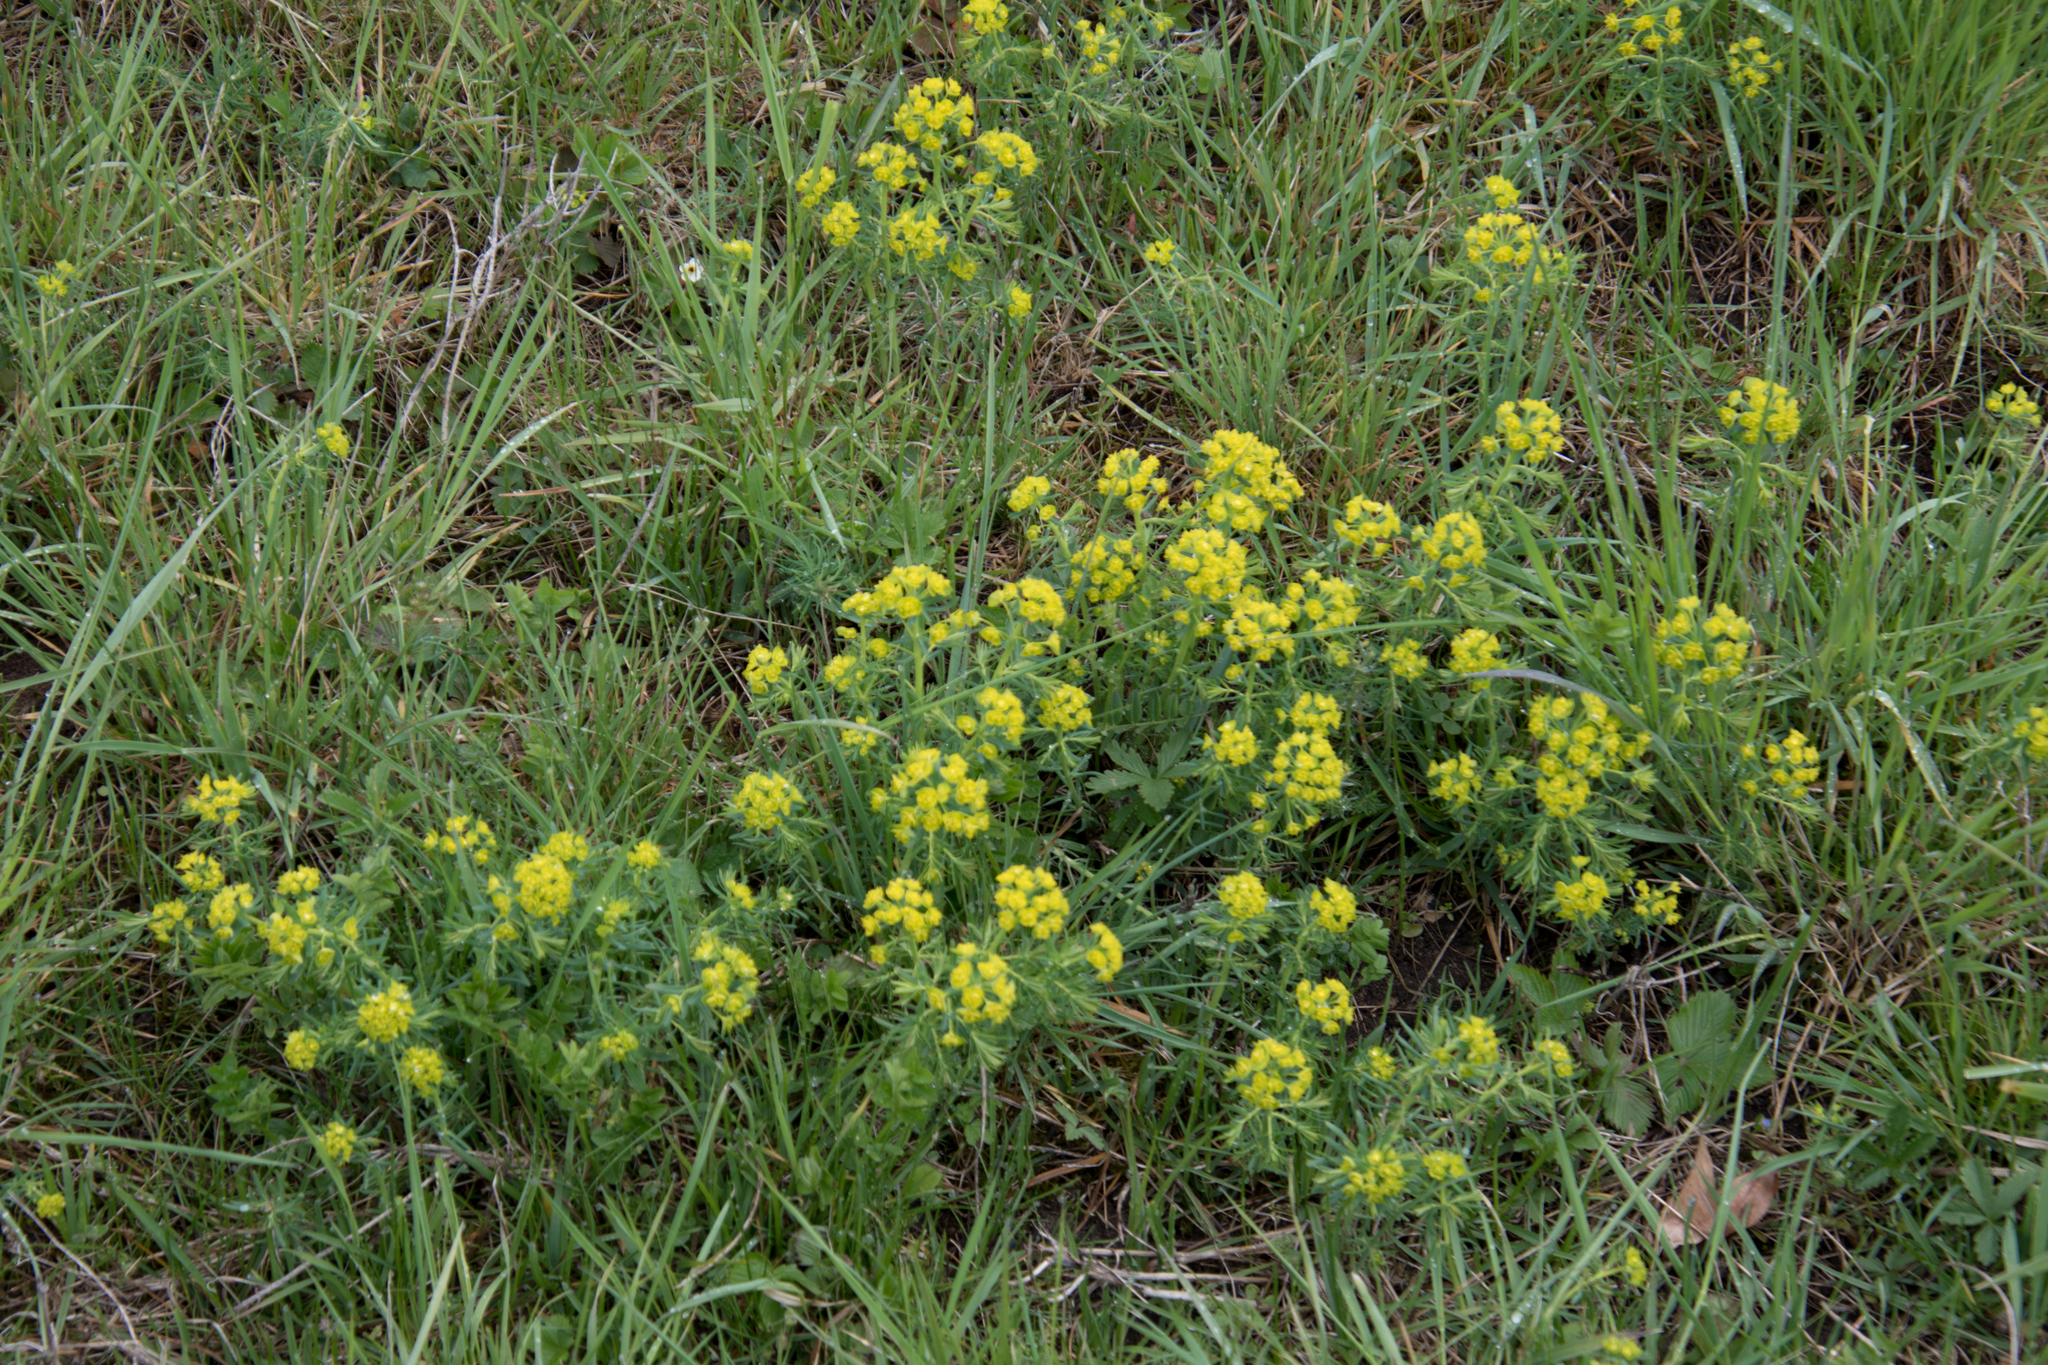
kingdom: Plantae
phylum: Tracheophyta
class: Magnoliopsida
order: Malpighiales
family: Euphorbiaceae
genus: Euphorbia
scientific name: Euphorbia cyparissias
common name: Cypress spurge
